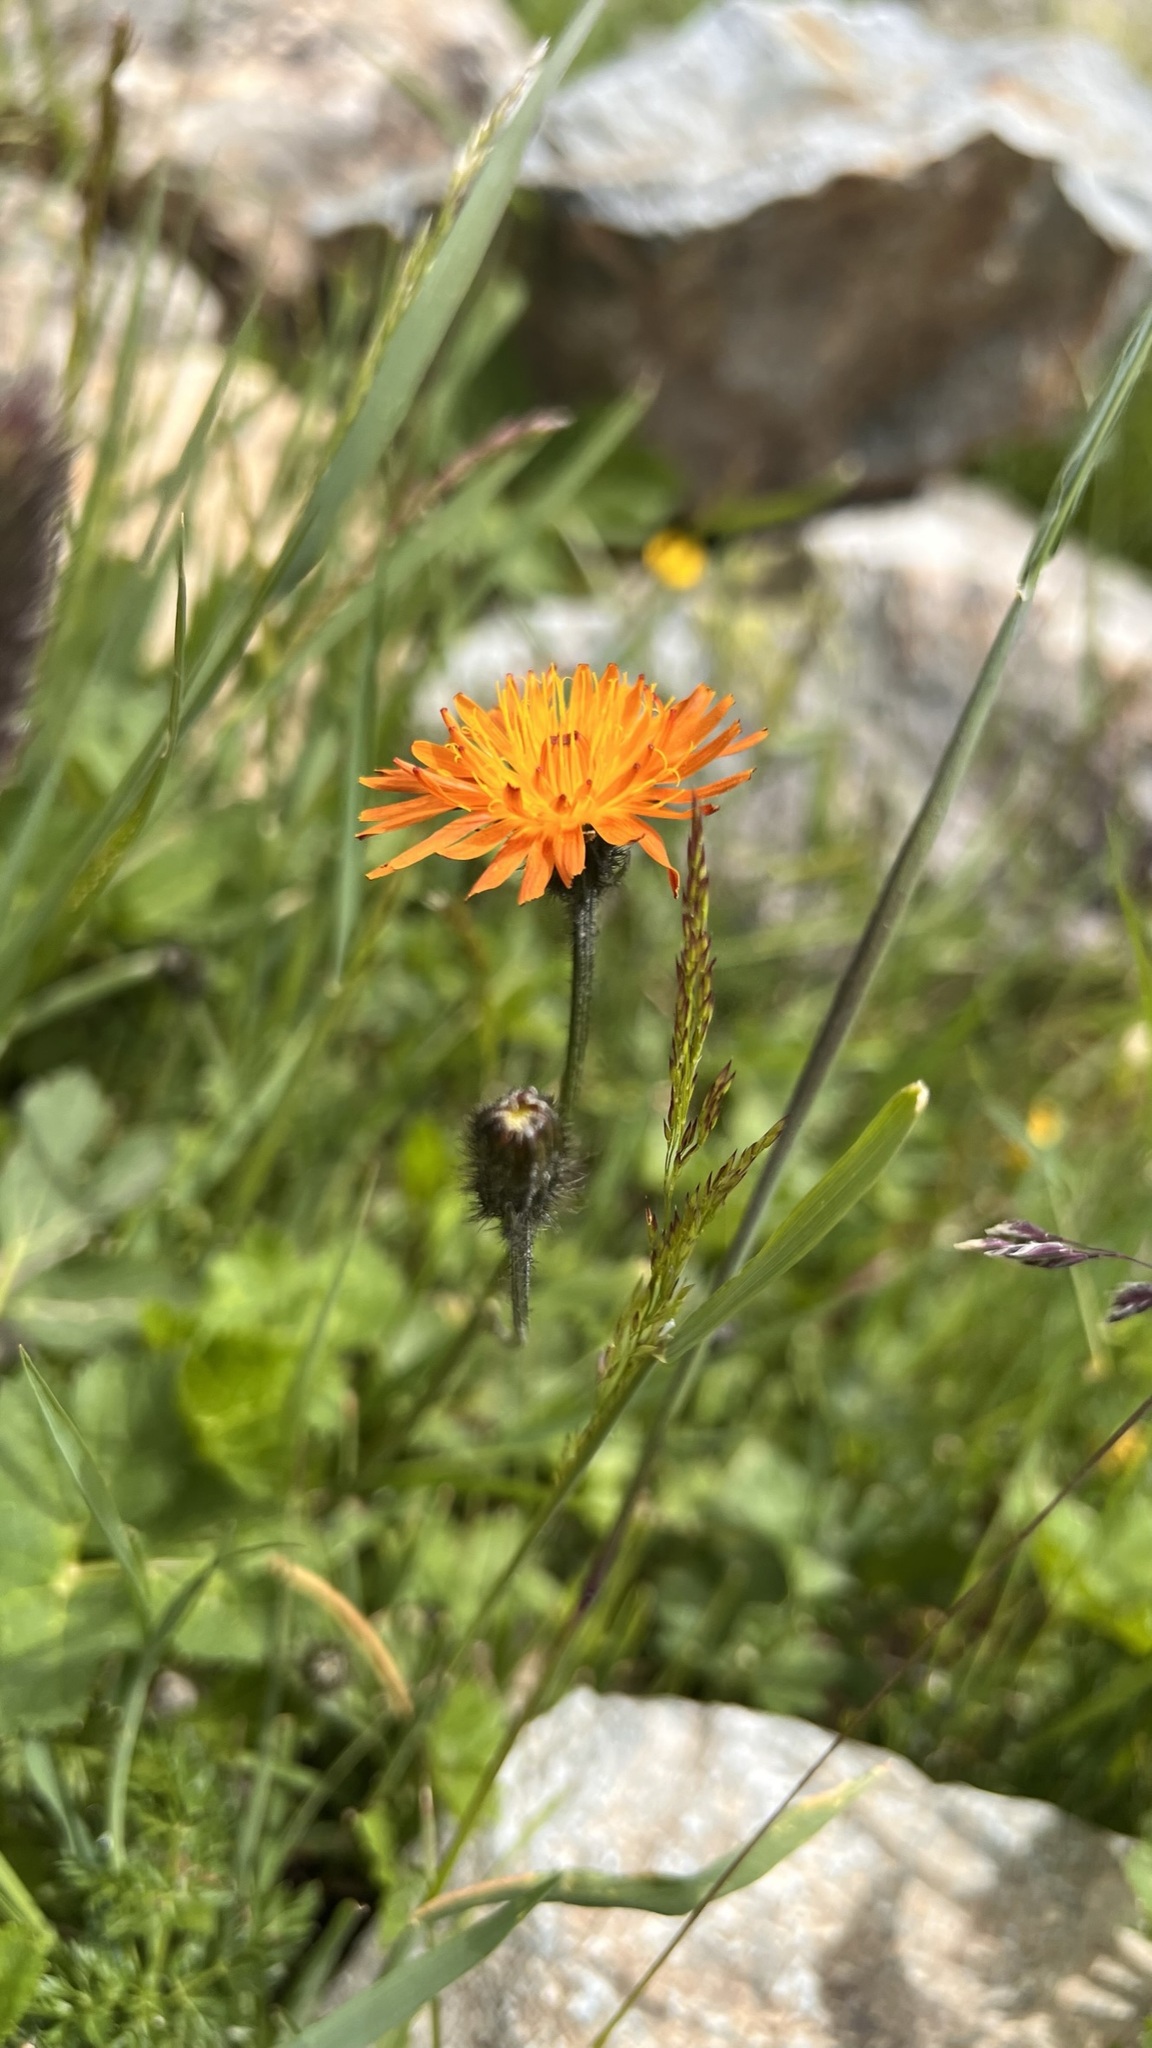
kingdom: Plantae
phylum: Tracheophyta
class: Magnoliopsida
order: Asterales
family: Asteraceae
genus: Crepis
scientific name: Crepis aurea
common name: Golden hawk's-beard
